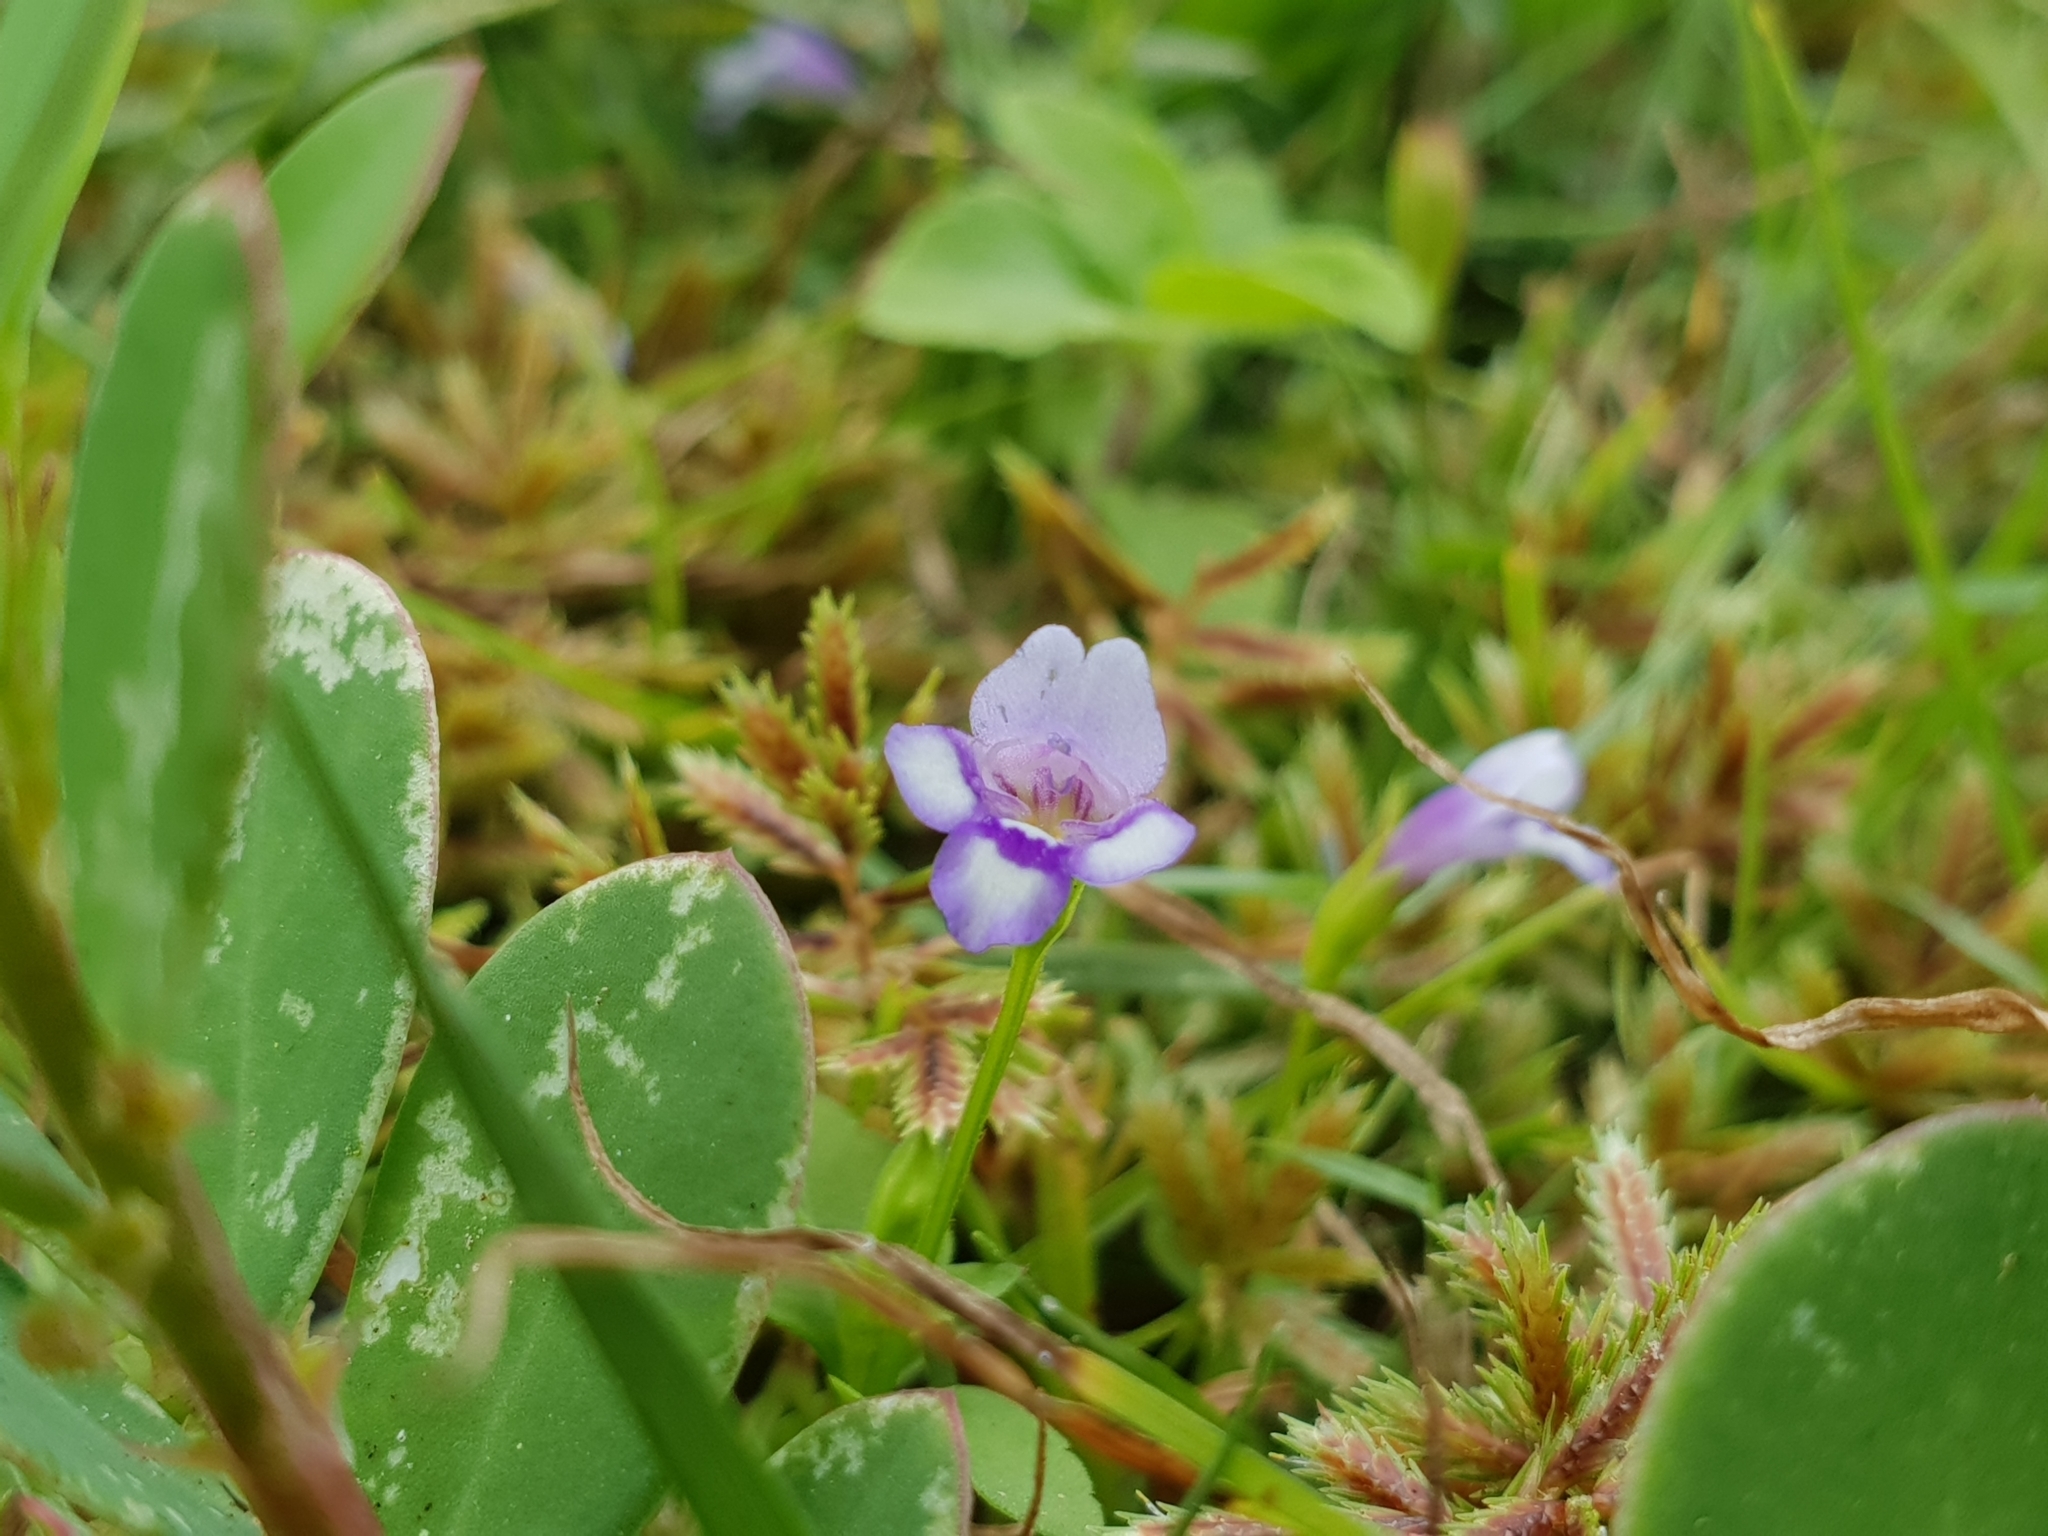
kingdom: Plantae
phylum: Tracheophyta
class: Magnoliopsida
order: Lamiales
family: Linderniaceae
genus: Torenia
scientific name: Torenia crustacea
